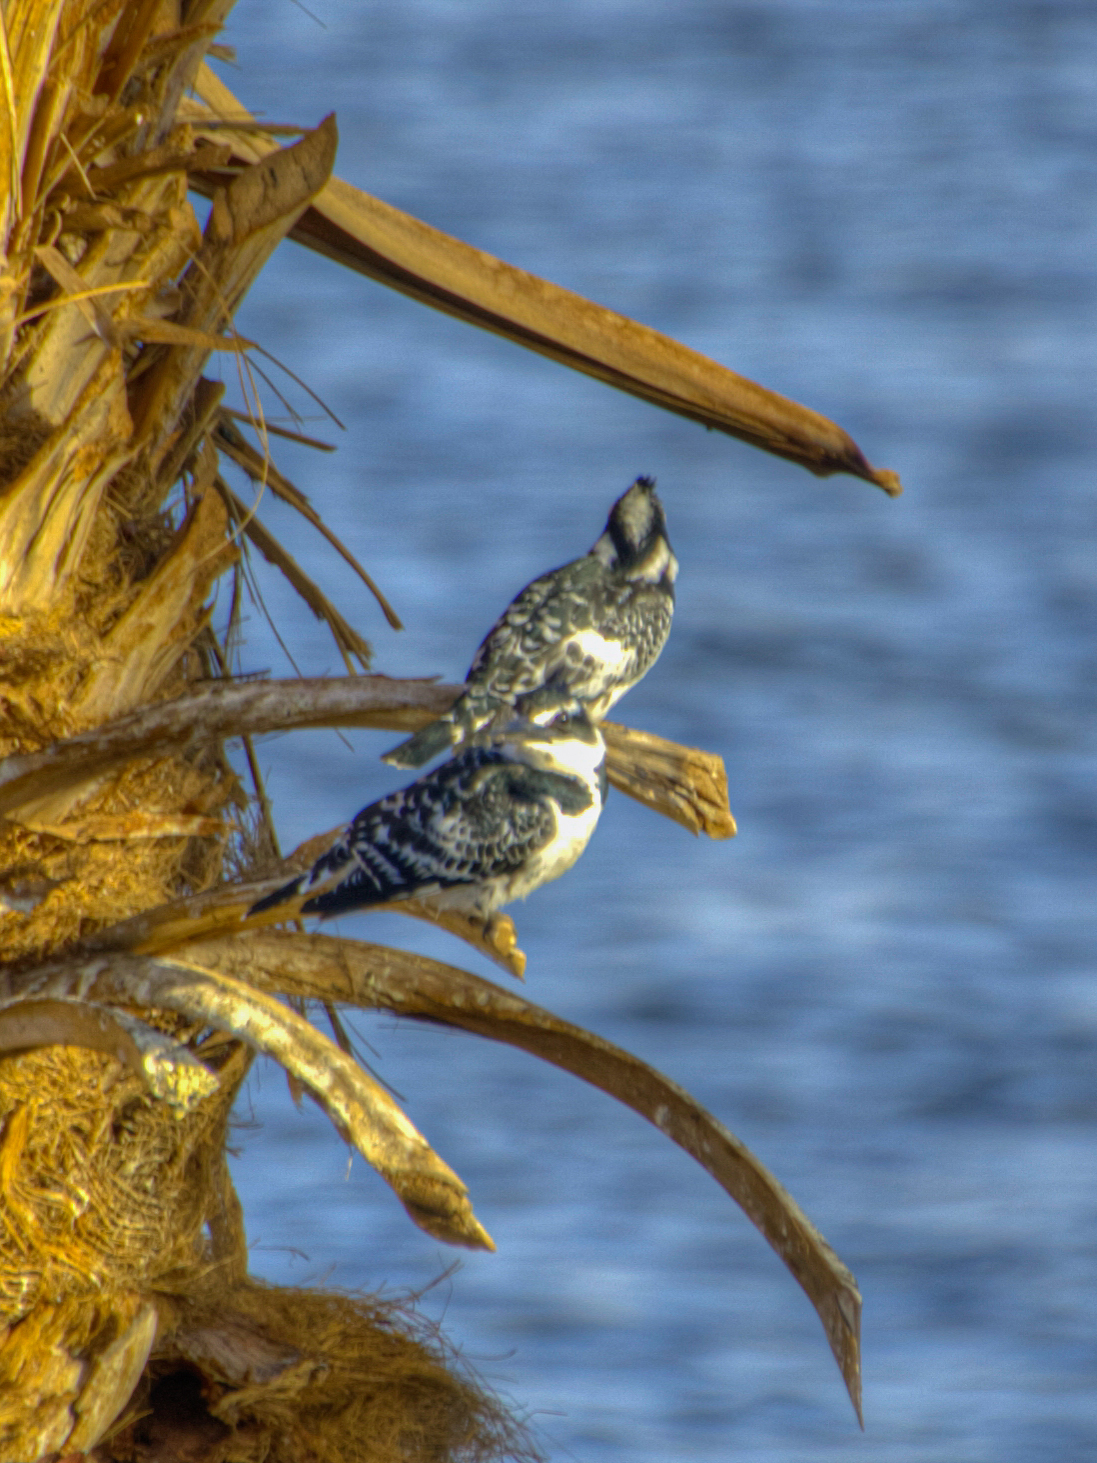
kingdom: Animalia
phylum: Chordata
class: Aves
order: Coraciiformes
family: Alcedinidae
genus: Ceryle
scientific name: Ceryle rudis
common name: Pied kingfisher
